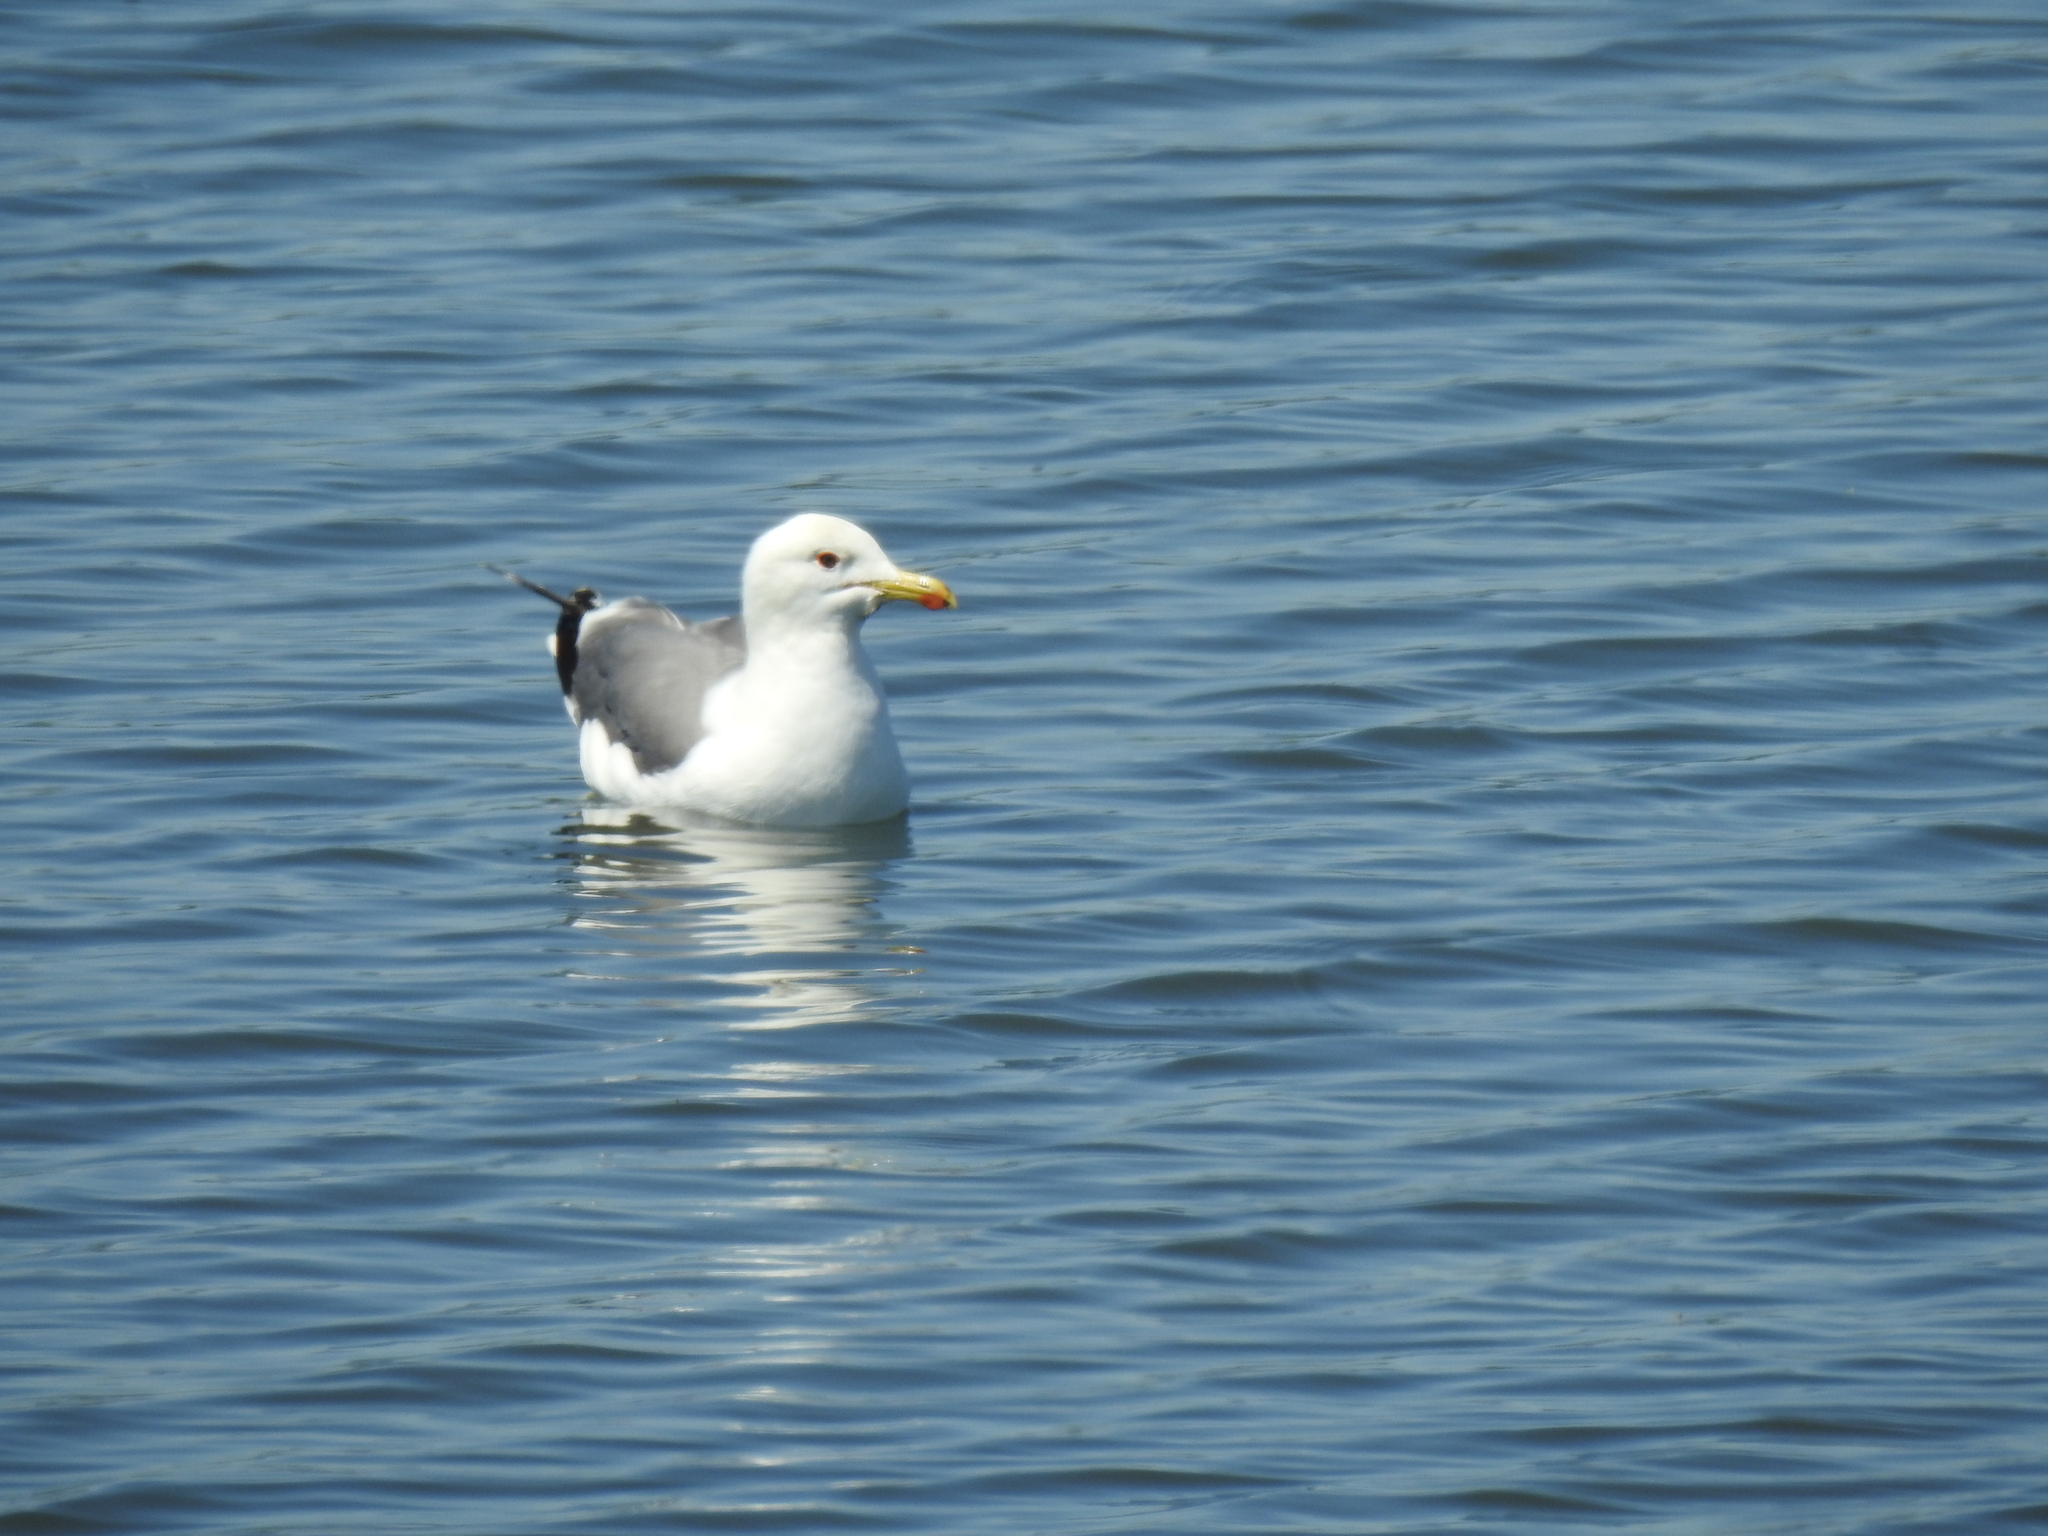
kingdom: Animalia
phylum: Chordata
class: Aves
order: Charadriiformes
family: Laridae
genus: Larus
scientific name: Larus californicus
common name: California gull
